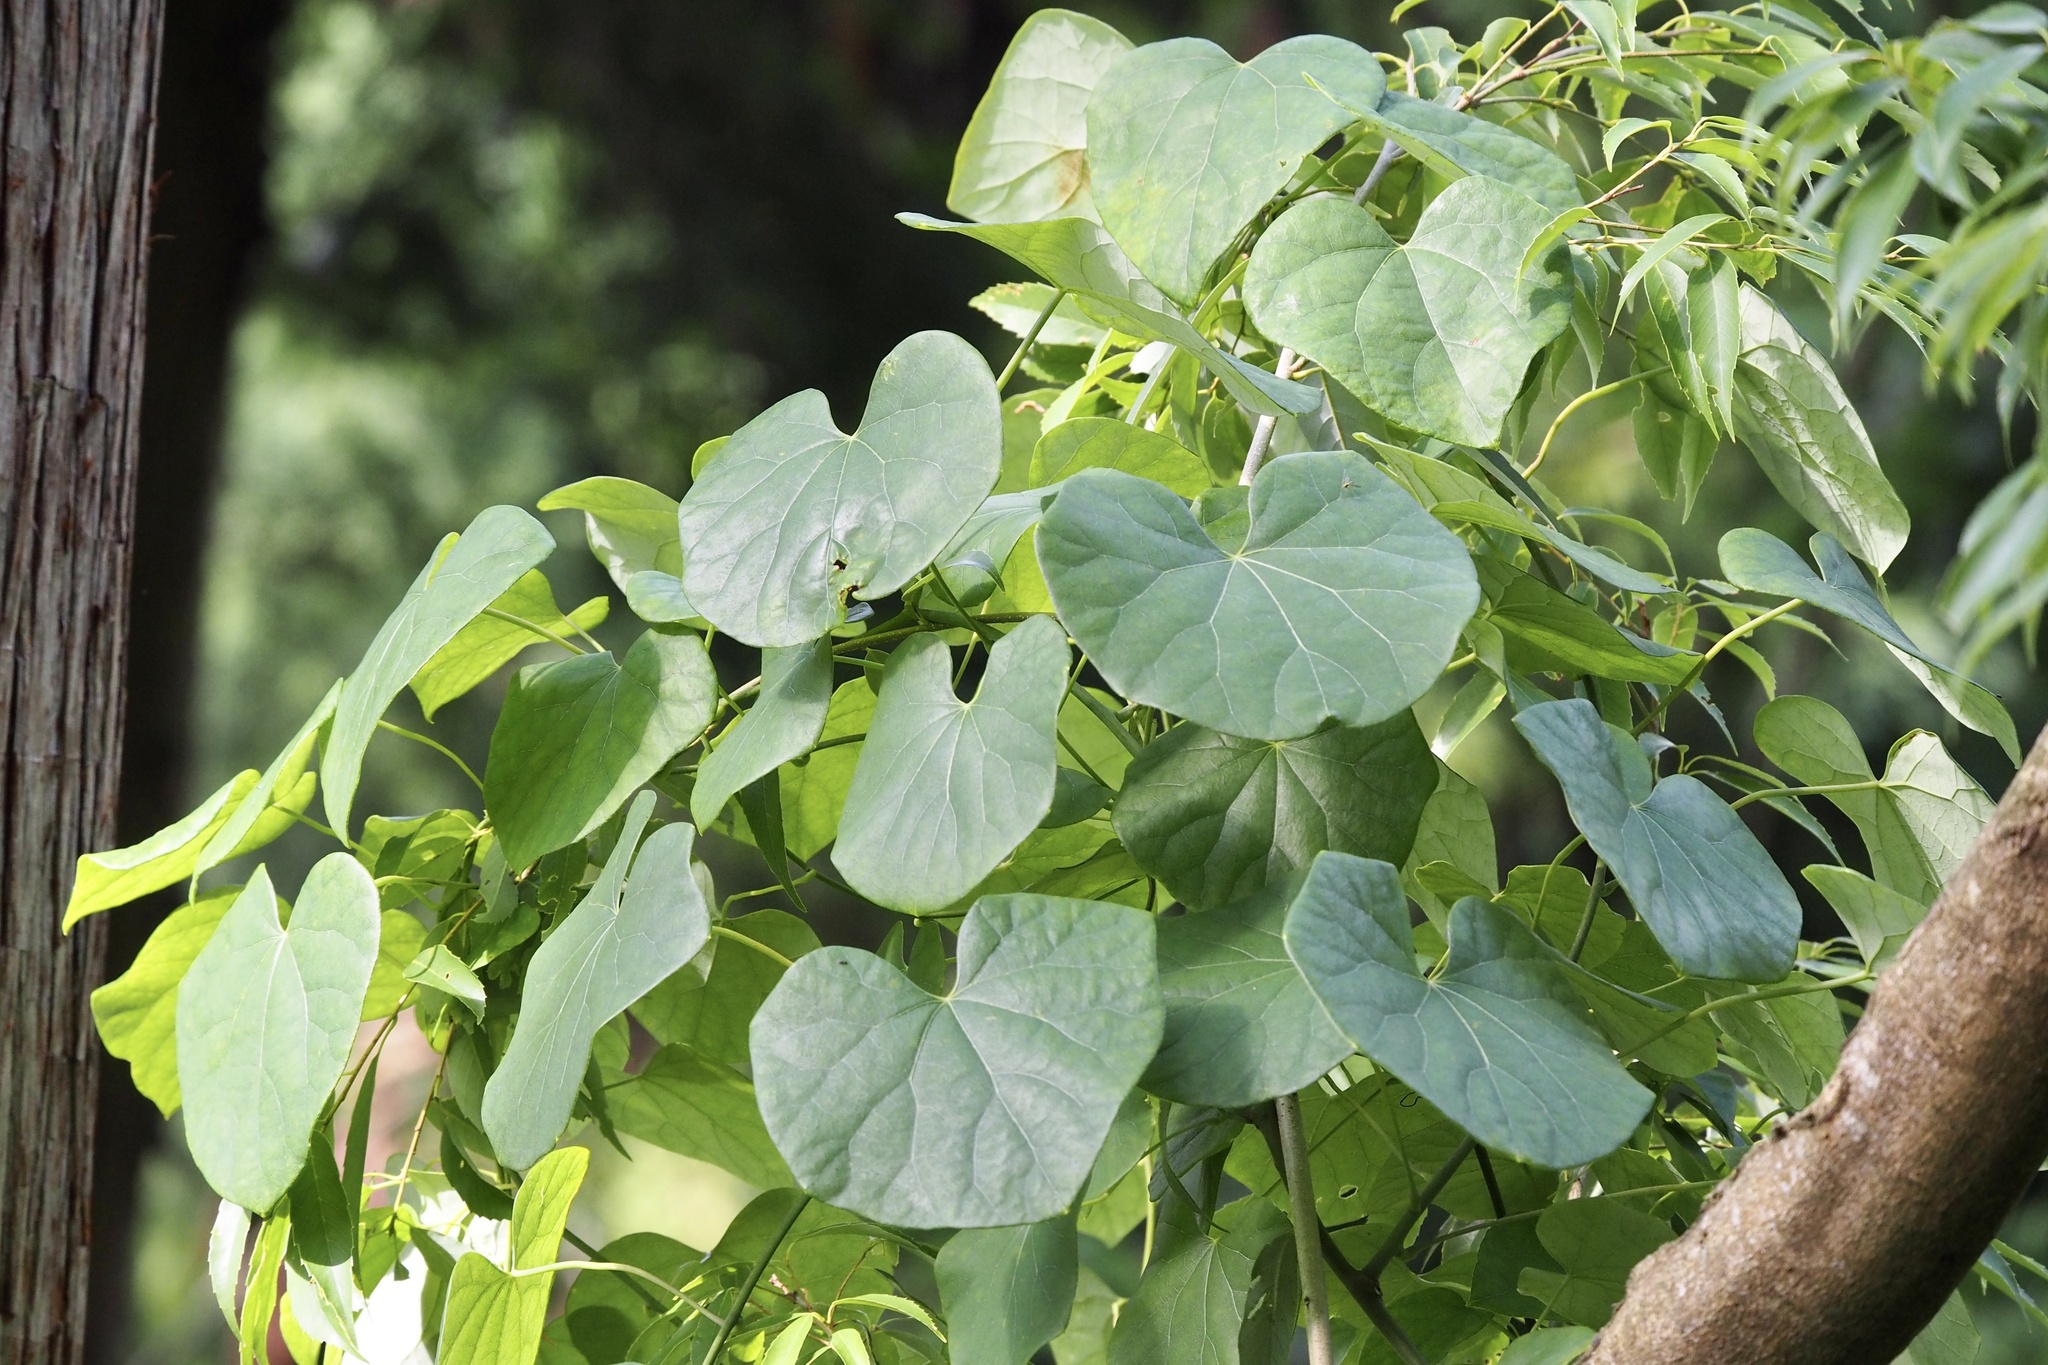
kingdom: Plantae
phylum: Tracheophyta
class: Magnoliopsida
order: Ranunculales
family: Menispermaceae
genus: Sinomenium
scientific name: Sinomenium acutum
